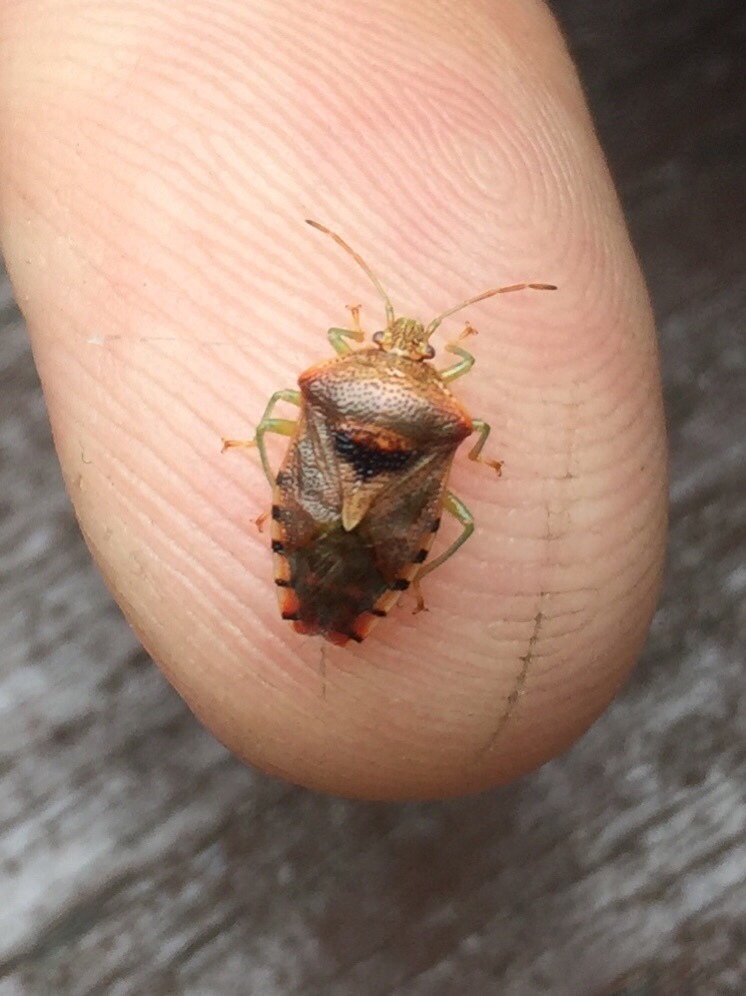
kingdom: Animalia
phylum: Arthropoda
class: Insecta
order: Hemiptera
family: Acanthosomatidae
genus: Elasmucha
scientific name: Elasmucha grisea
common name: Parent bug
